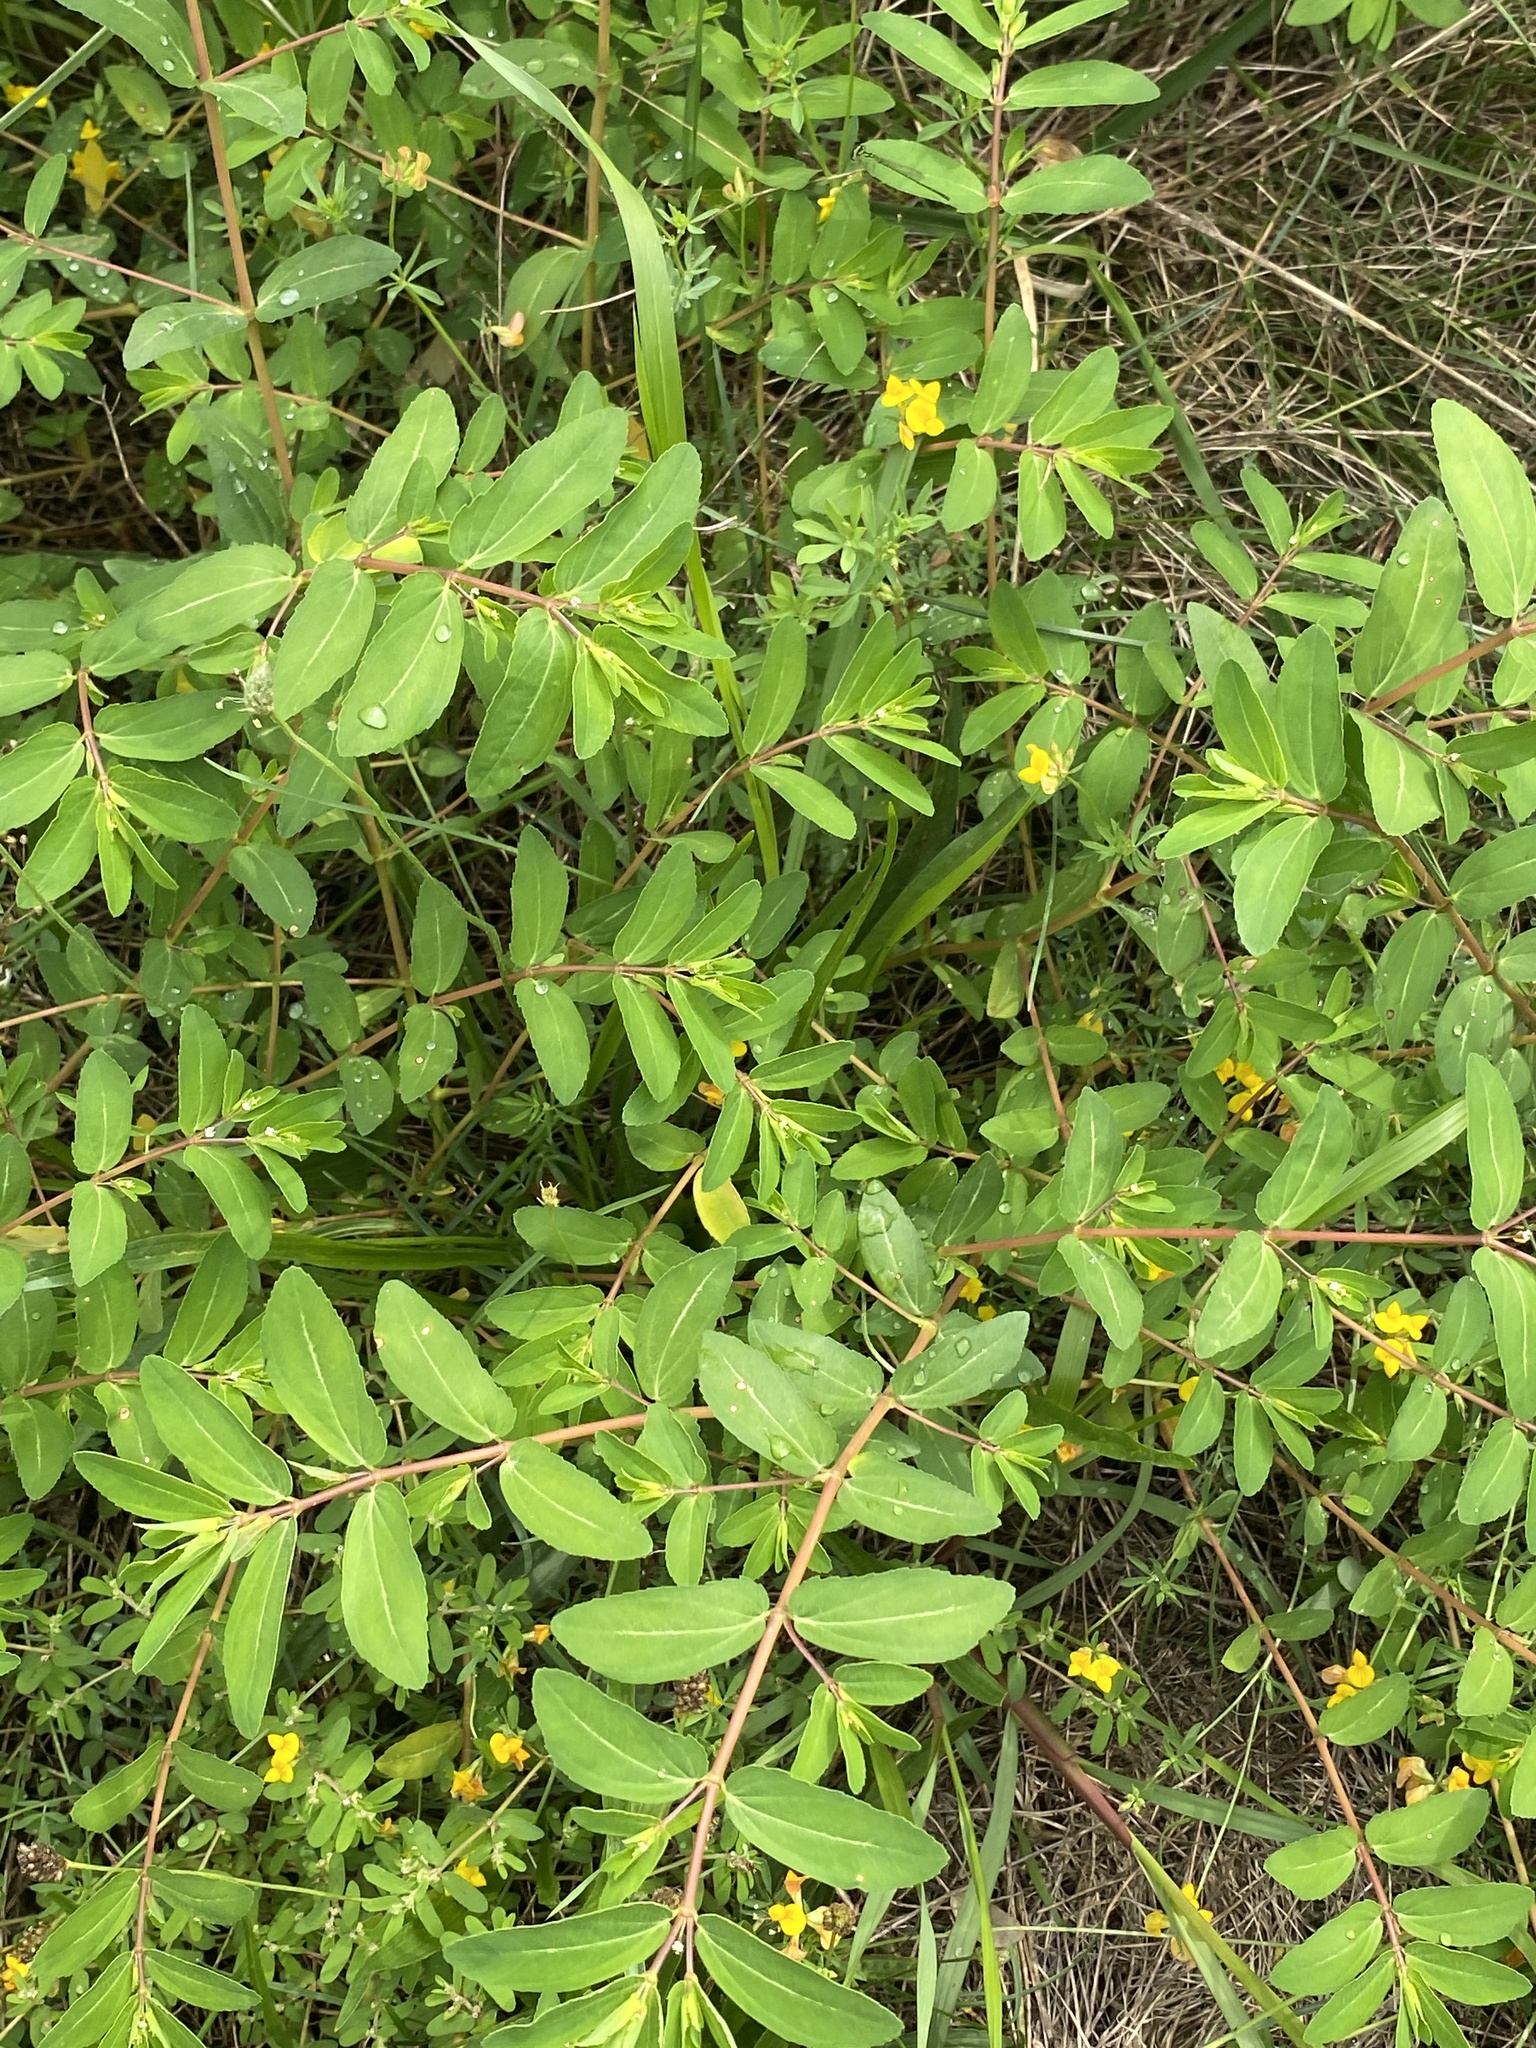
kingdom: Plantae
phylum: Tracheophyta
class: Magnoliopsida
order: Malpighiales
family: Euphorbiaceae
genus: Euphorbia
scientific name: Euphorbia nutans
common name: Eyebane
